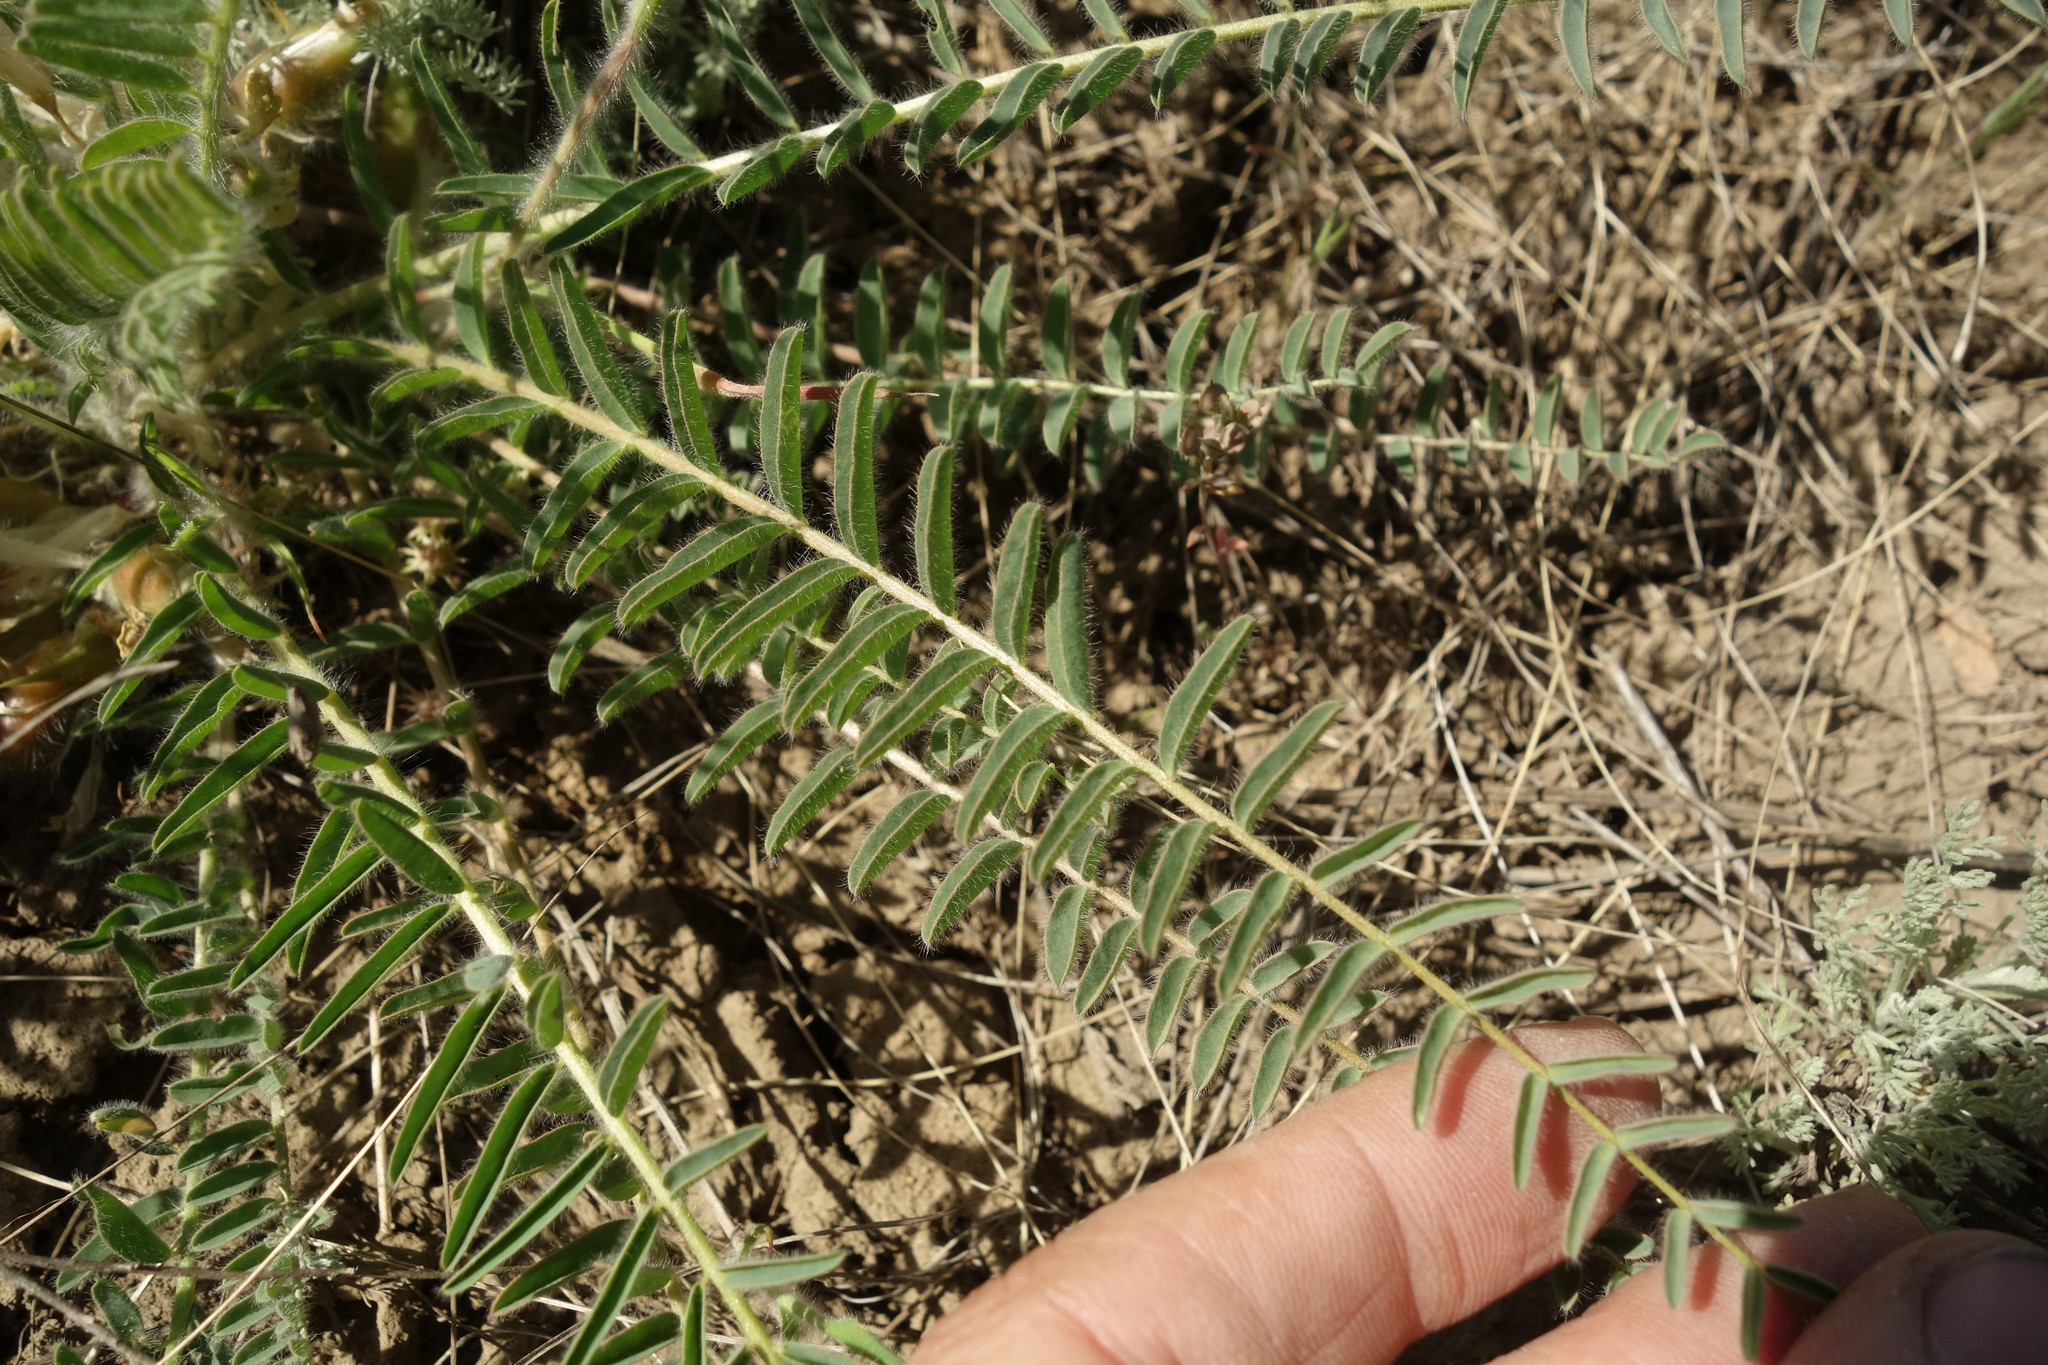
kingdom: Plantae
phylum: Tracheophyta
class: Magnoliopsida
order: Fabales
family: Fabaceae
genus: Astragalus
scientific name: Astragalus buchtormensis
